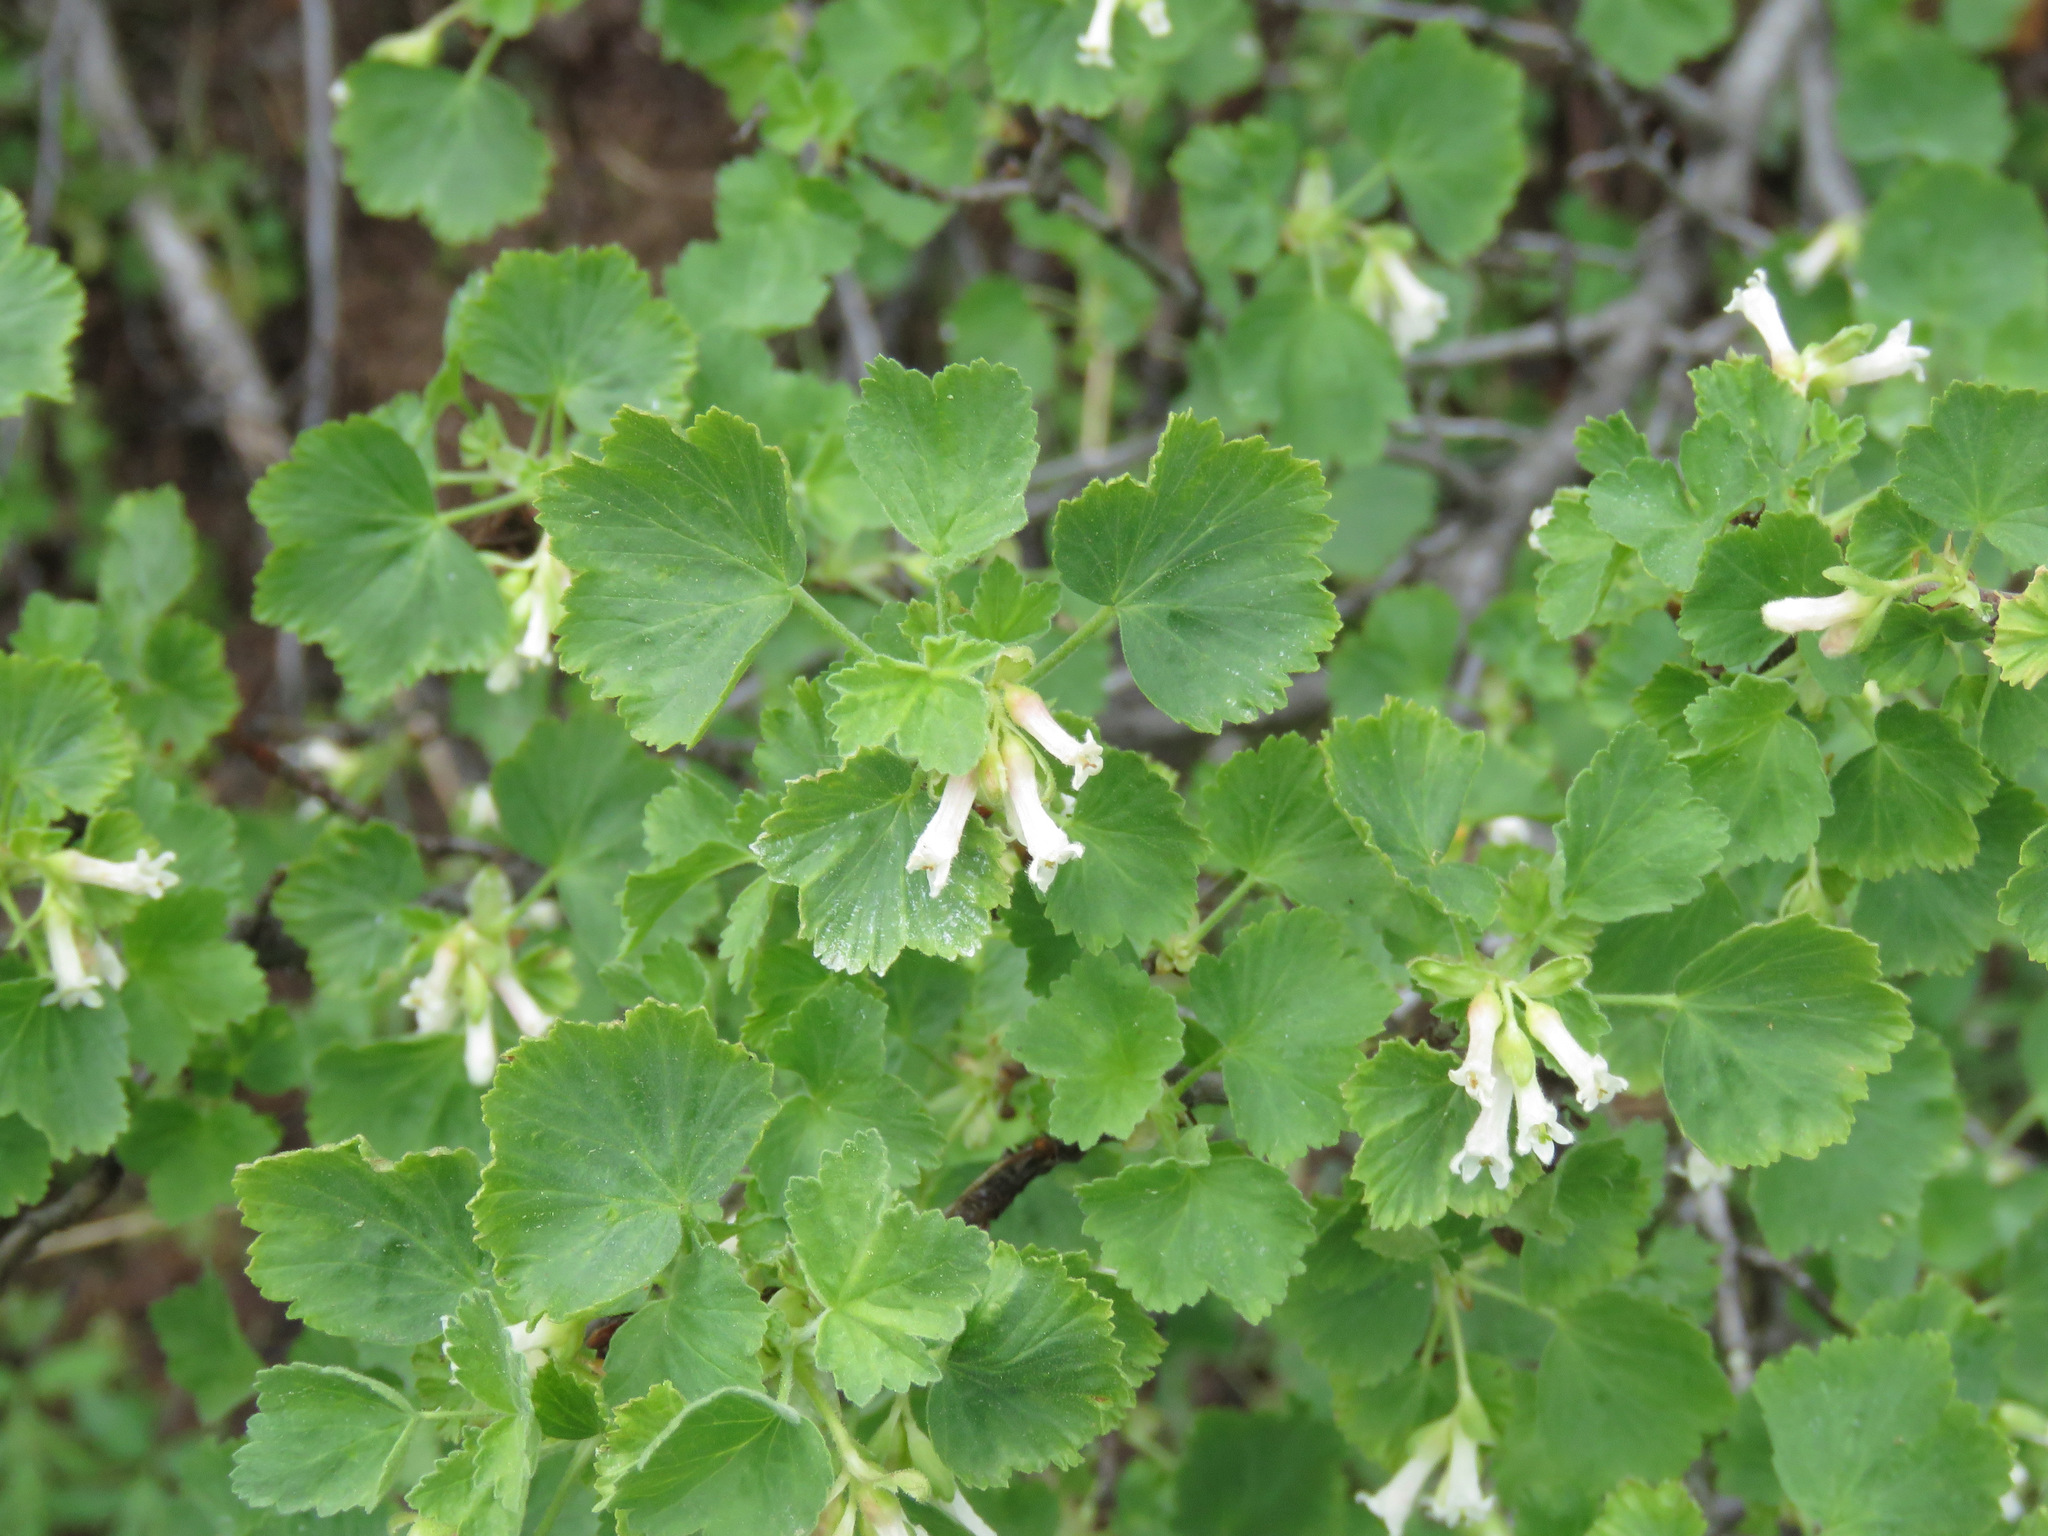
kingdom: Plantae
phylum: Tracheophyta
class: Magnoliopsida
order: Saxifragales
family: Grossulariaceae
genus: Ribes
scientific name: Ribes cereum
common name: Wax currant
